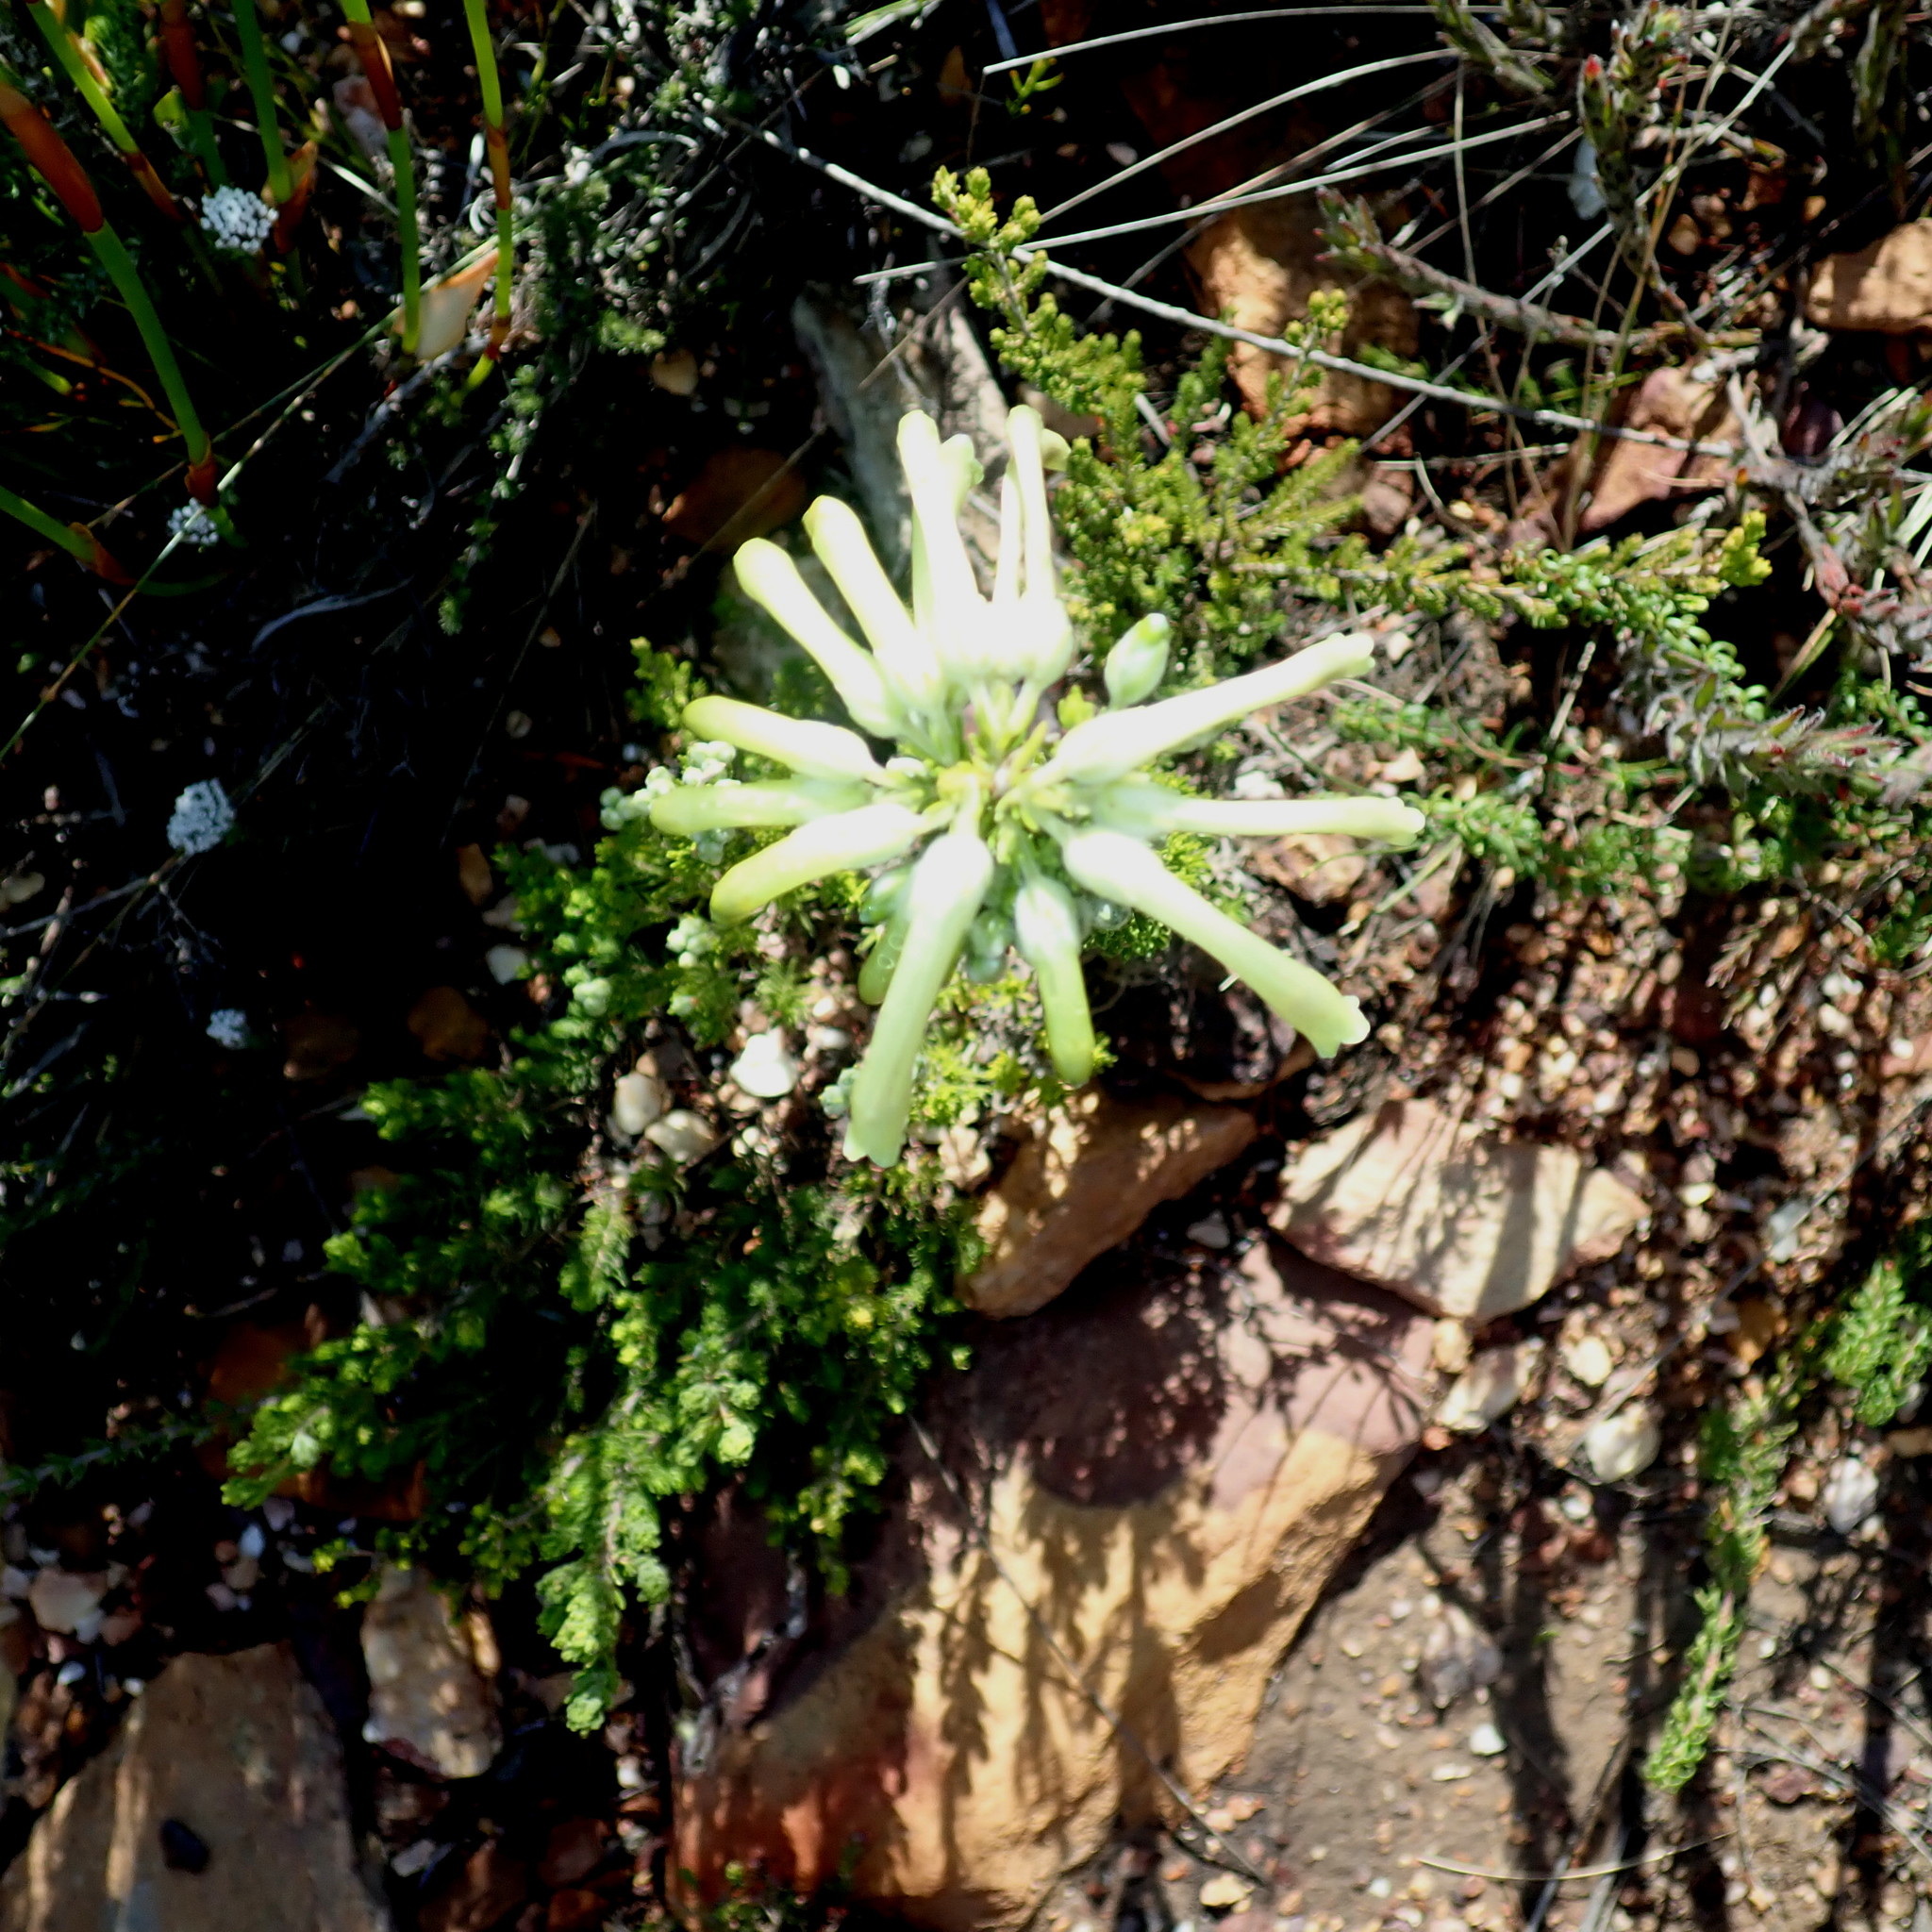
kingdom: Plantae
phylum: Tracheophyta
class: Magnoliopsida
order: Ericales
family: Ericaceae
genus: Erica
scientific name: Erica discolor
